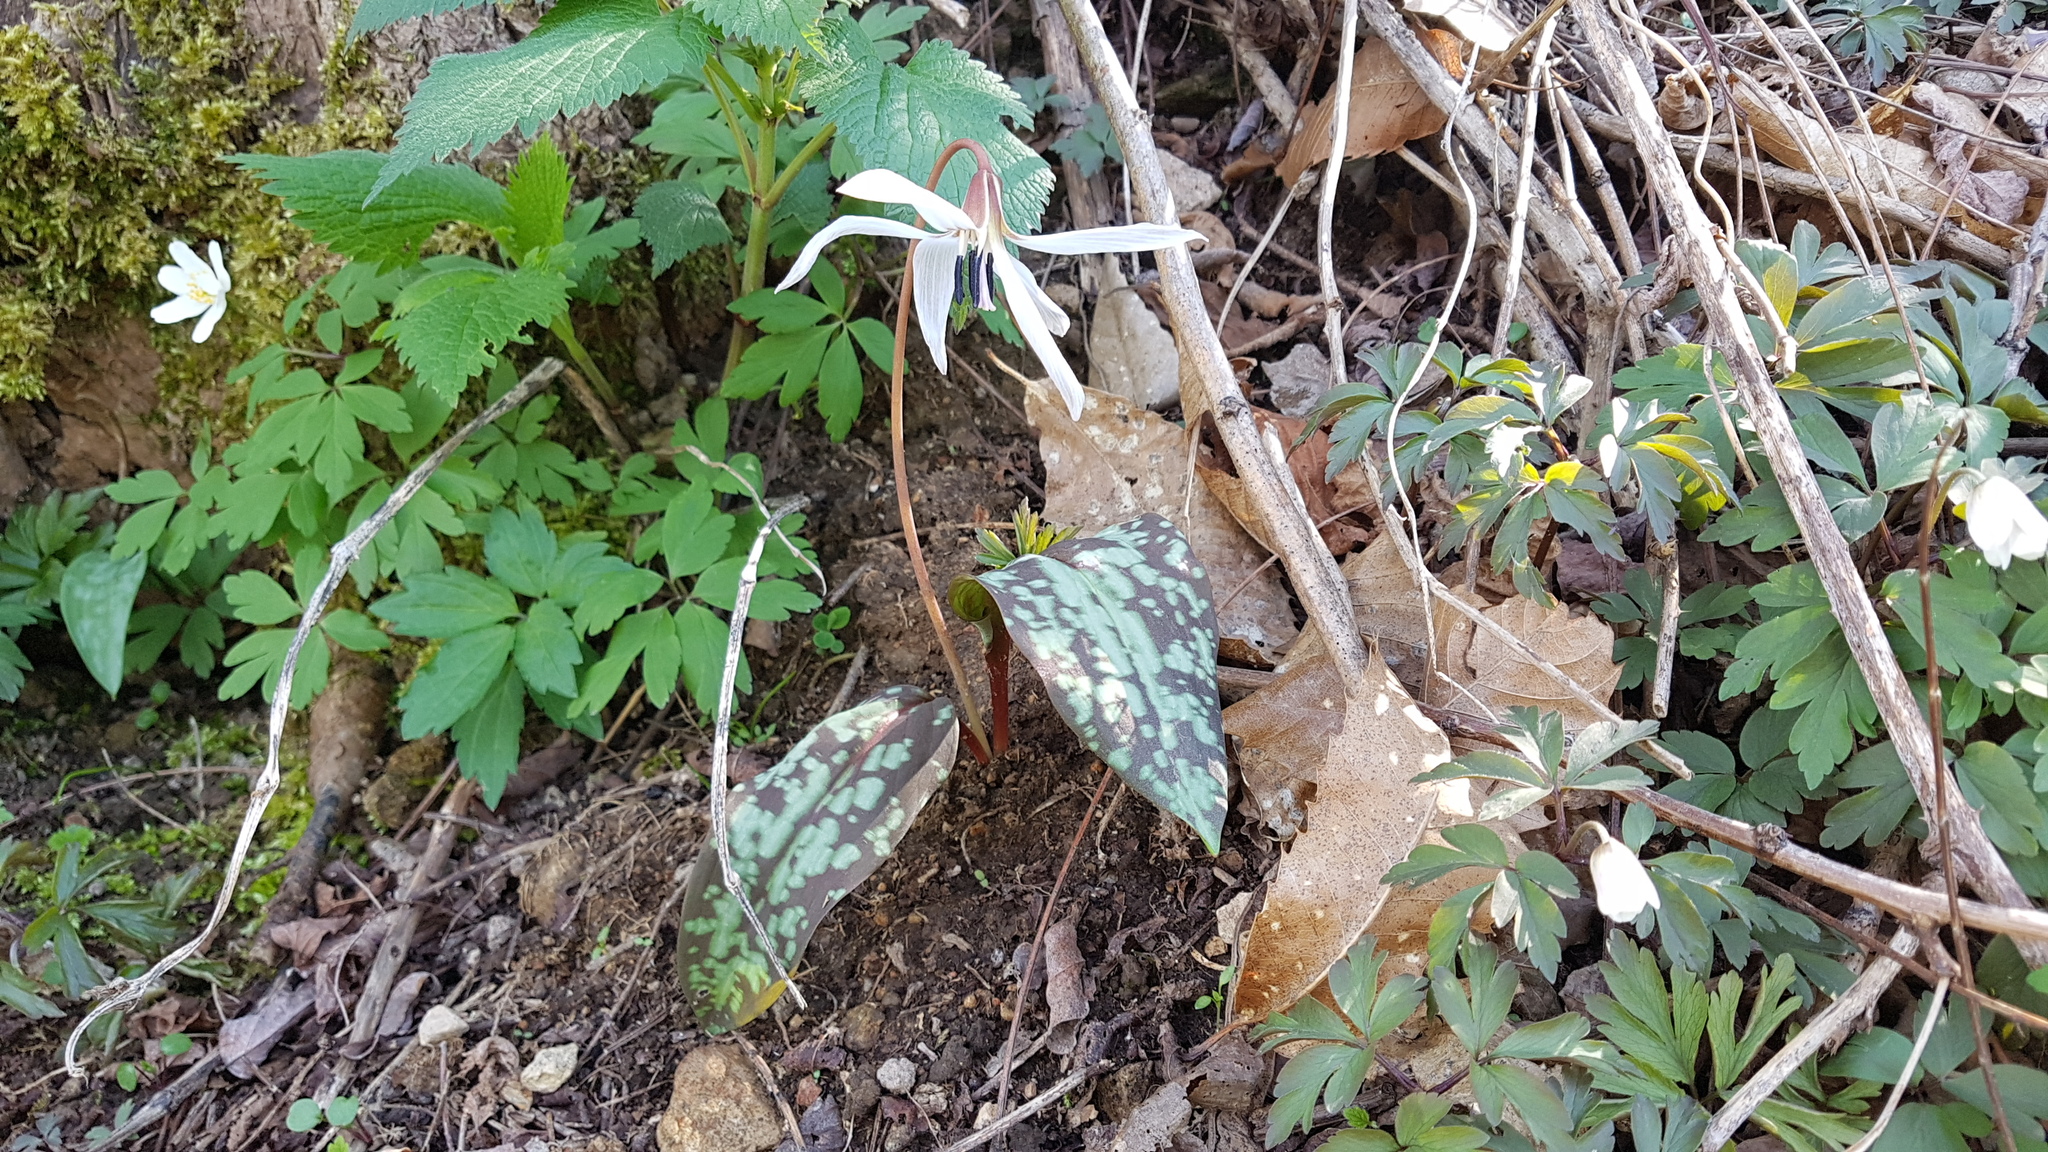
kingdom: Plantae
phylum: Tracheophyta
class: Liliopsida
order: Liliales
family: Liliaceae
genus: Erythronium
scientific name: Erythronium dens-canis
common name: Dog's-tooth-violet
